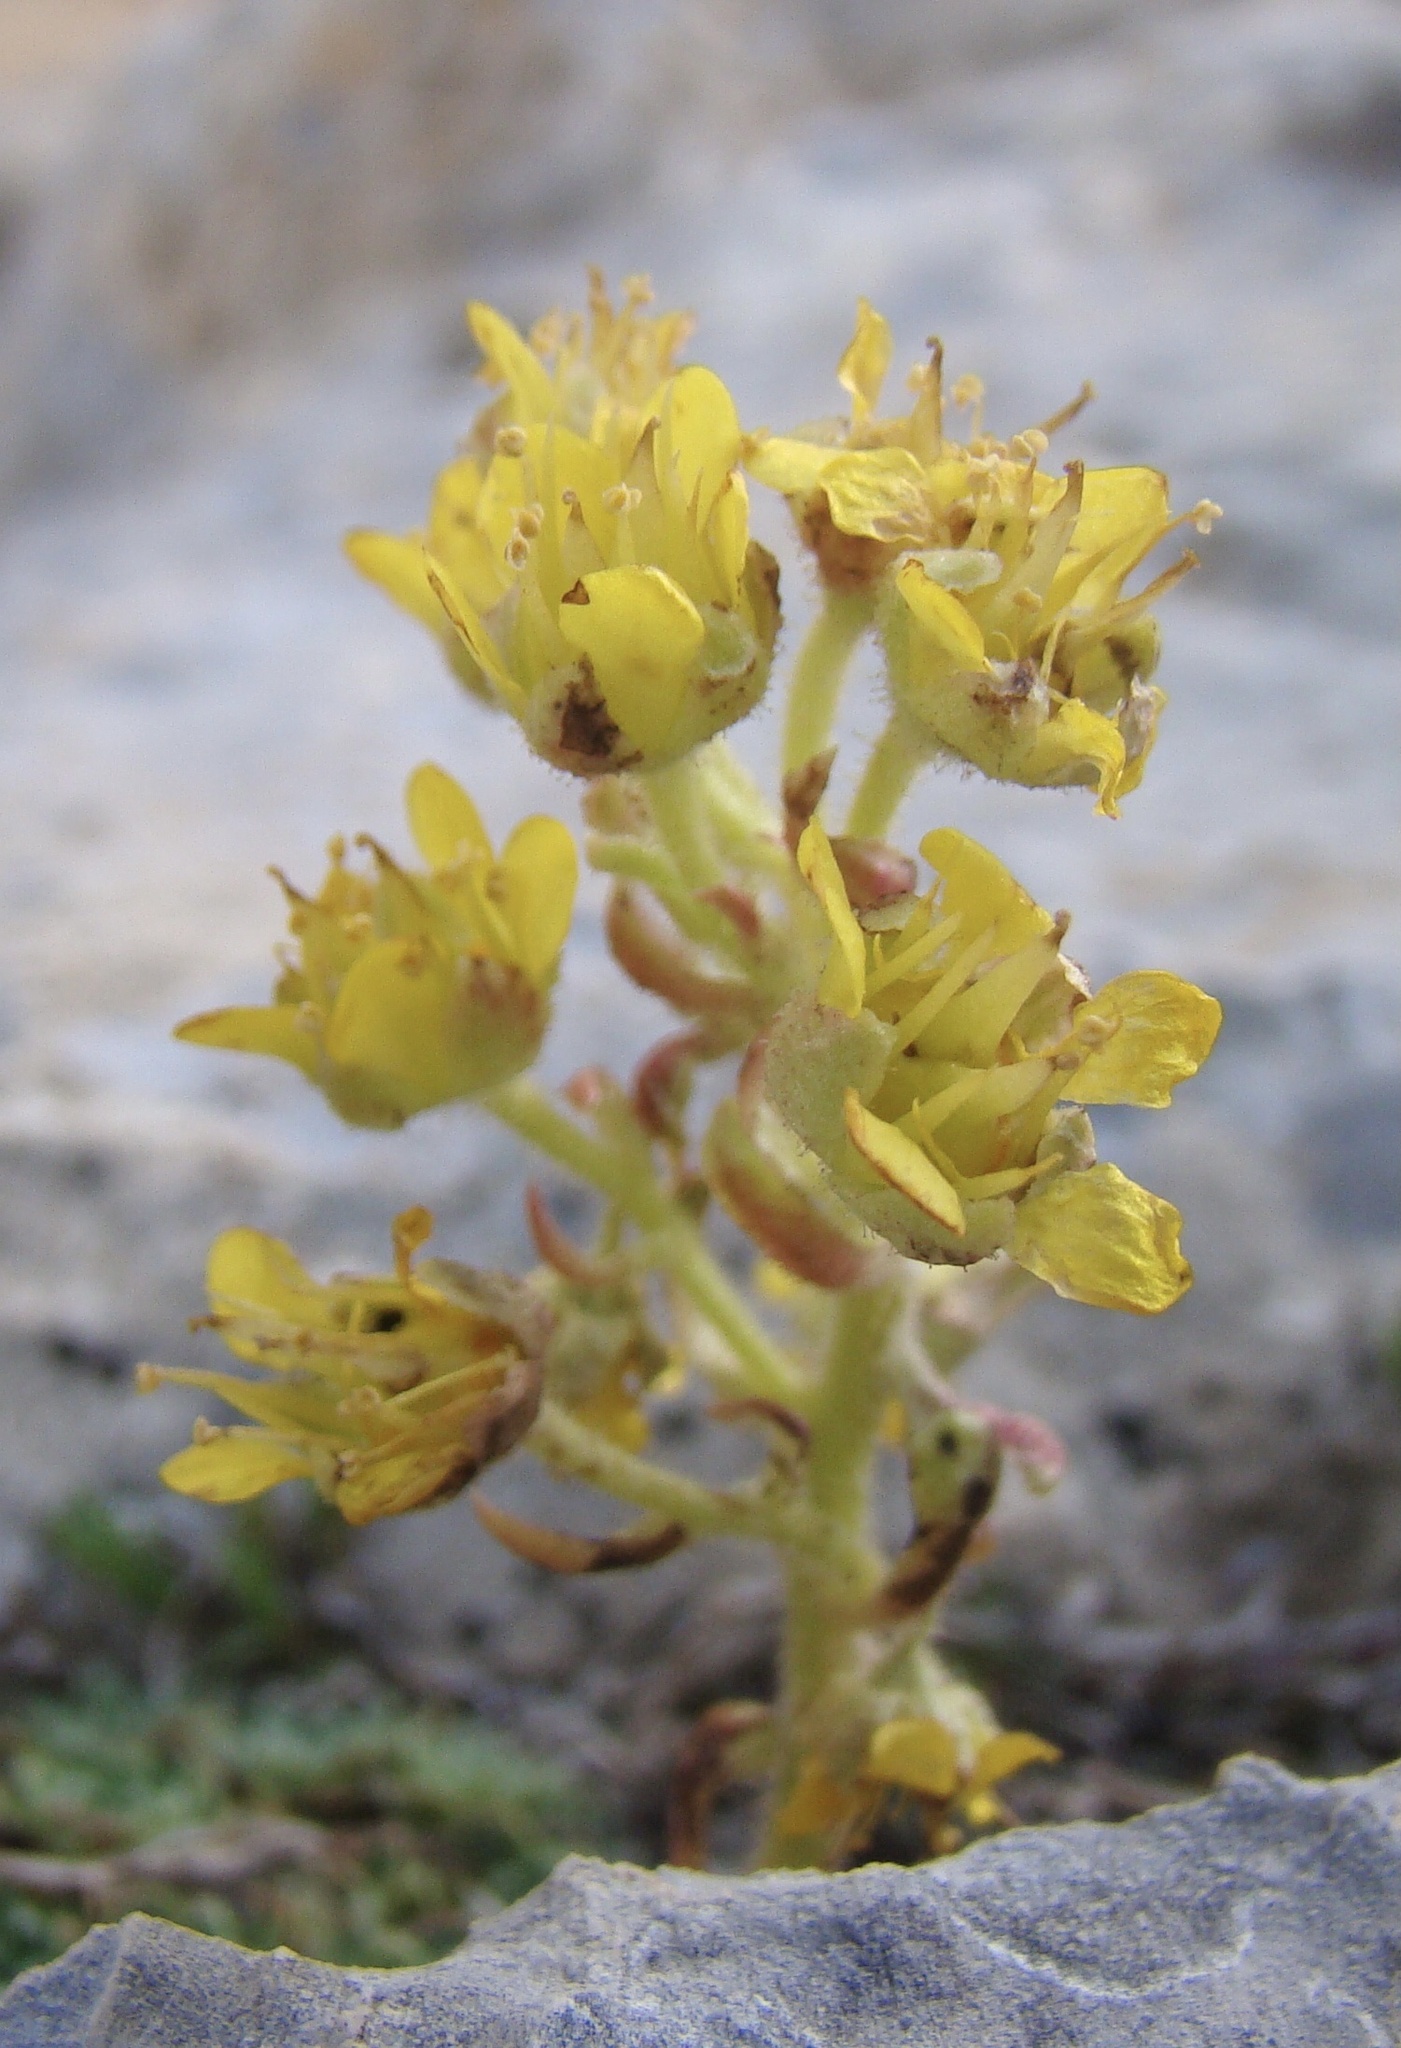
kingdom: Plantae
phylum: Tracheophyta
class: Magnoliopsida
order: Saxifragales
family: Saxifragaceae
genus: Saxifraga
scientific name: Saxifraga kotschyi
